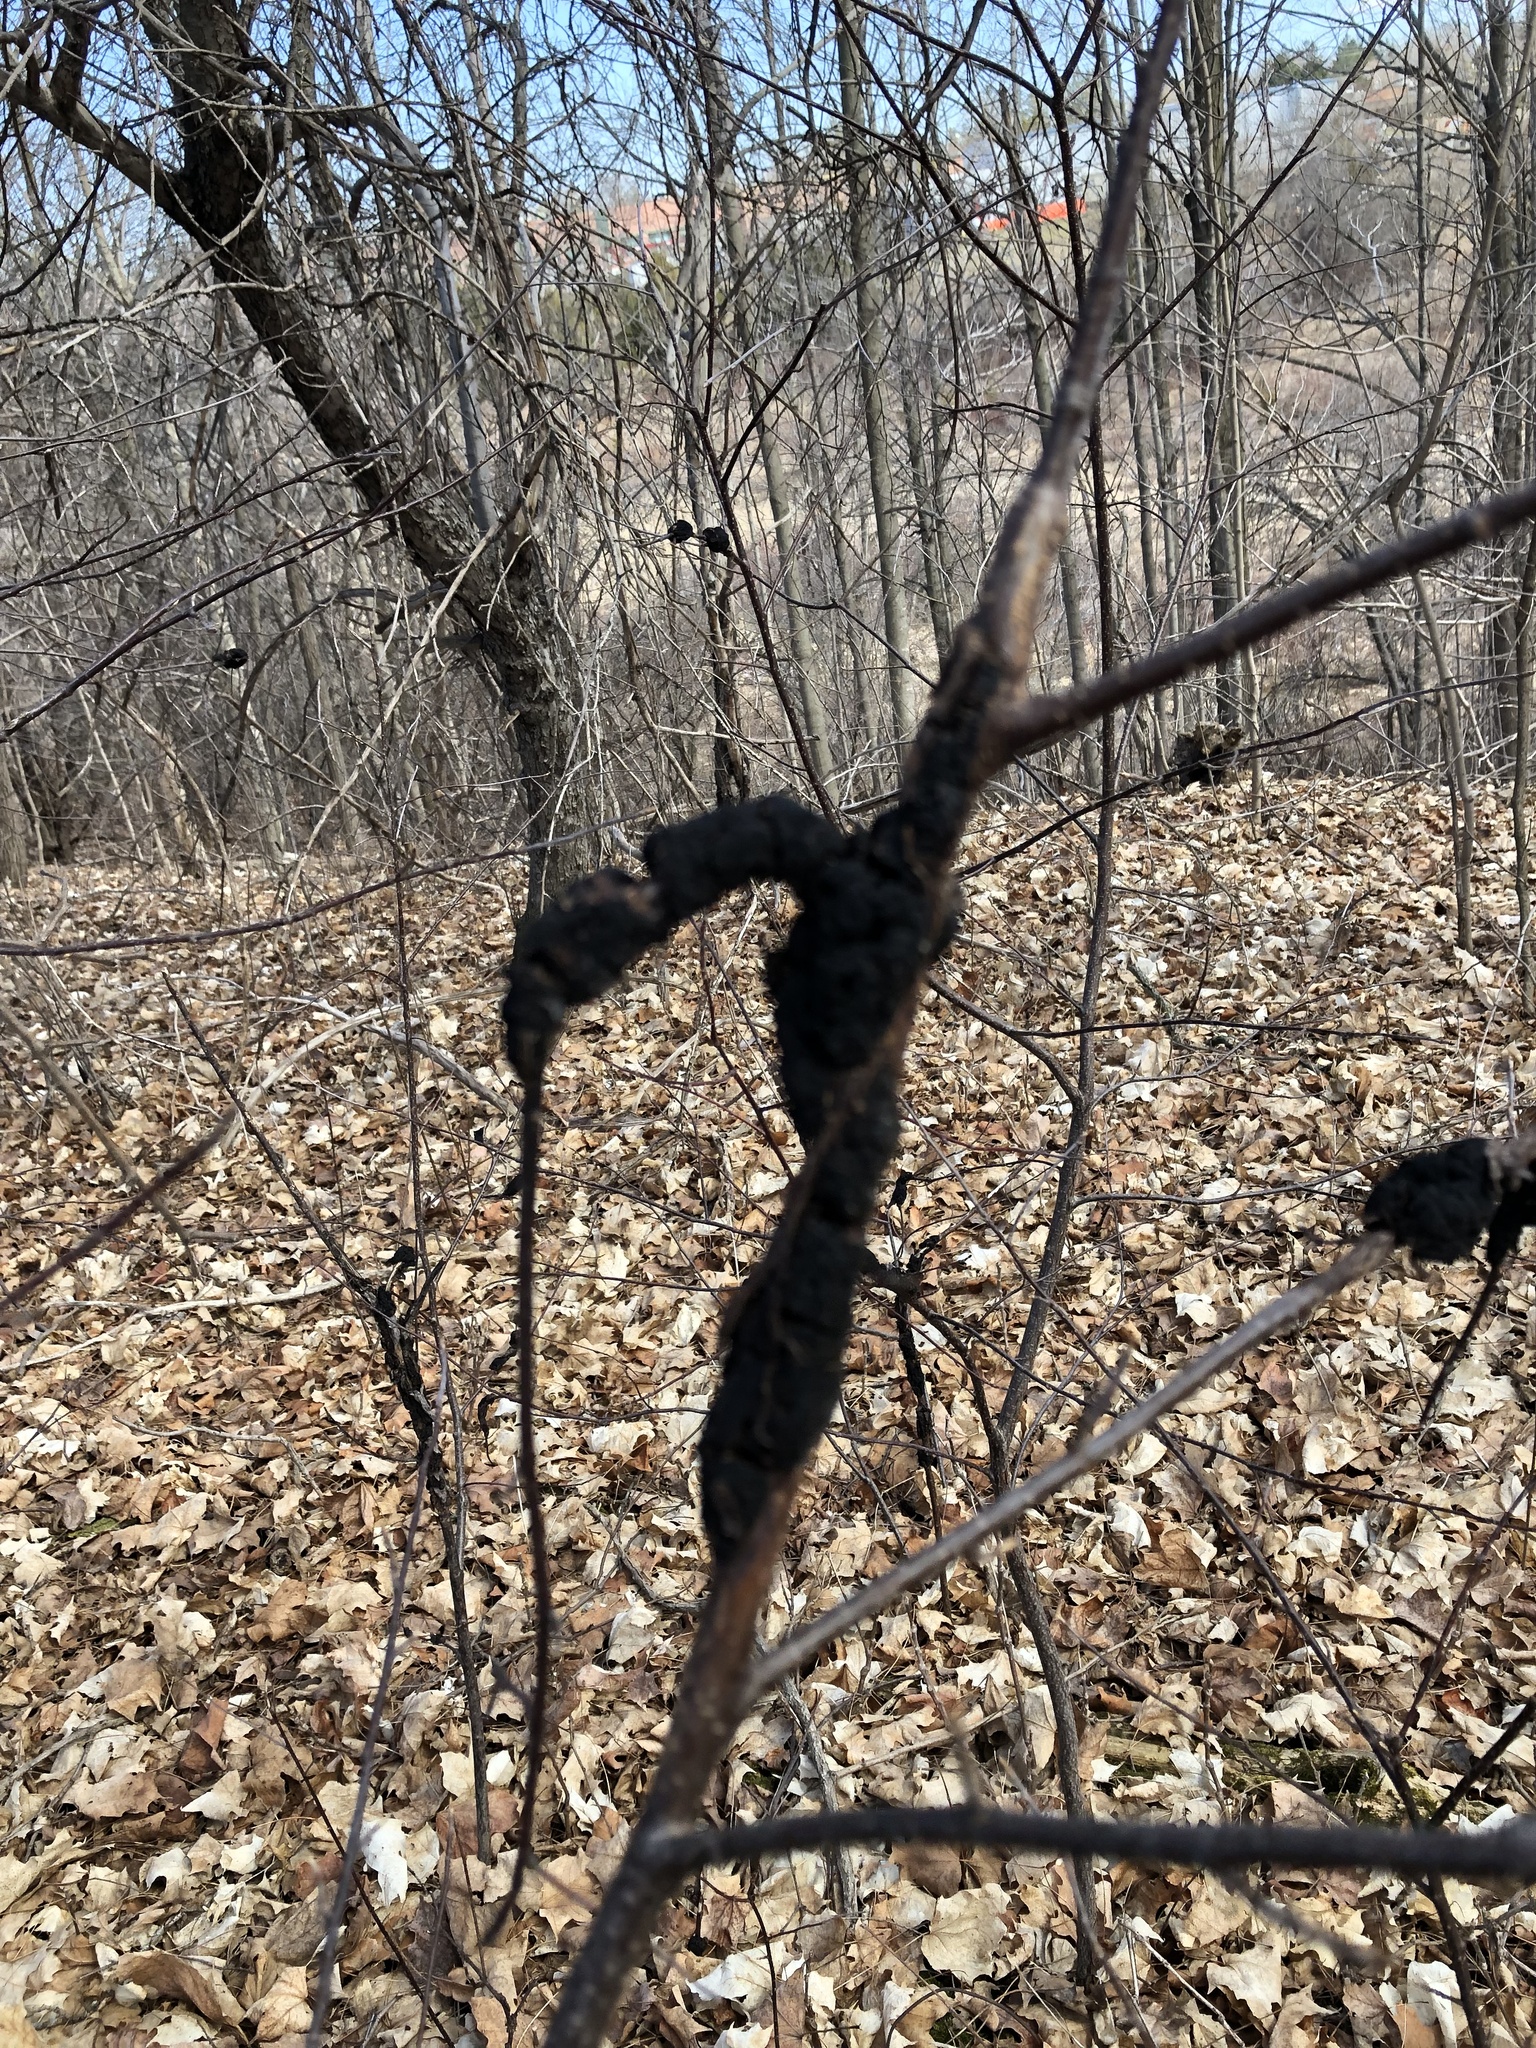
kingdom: Fungi
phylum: Ascomycota
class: Dothideomycetes
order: Venturiales
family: Venturiaceae
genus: Apiosporina
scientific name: Apiosporina morbosa
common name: Black knot
